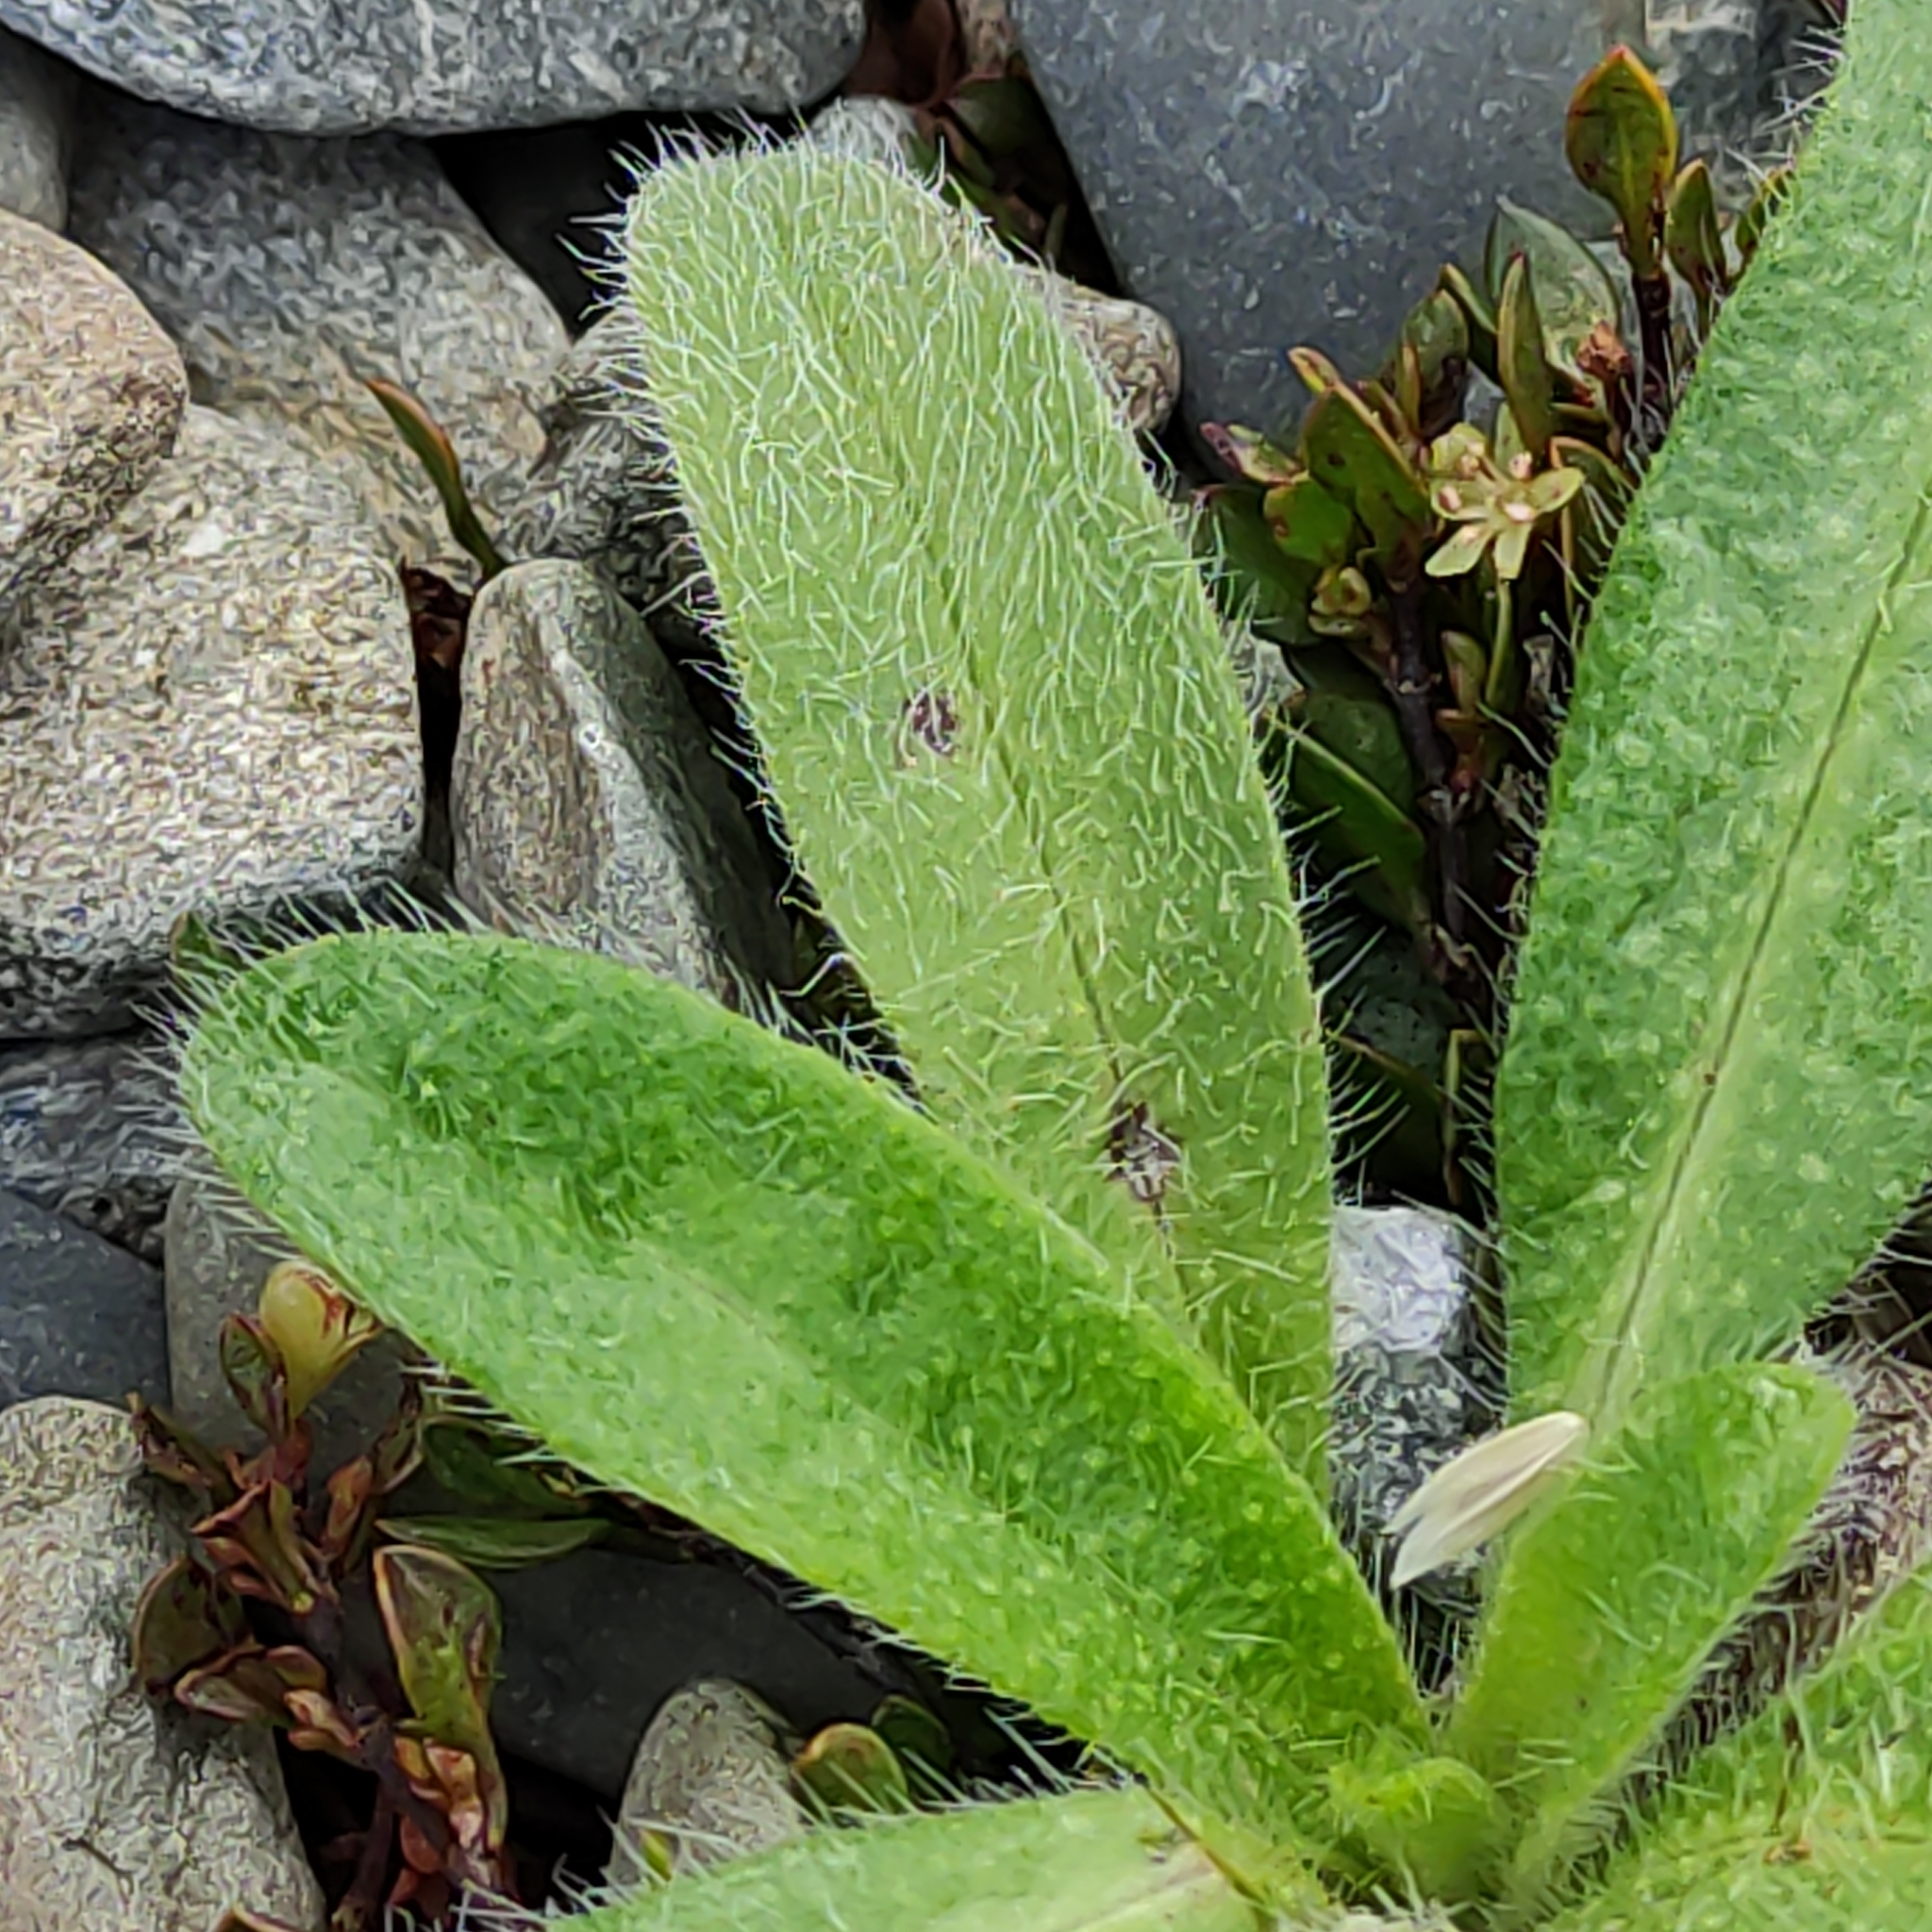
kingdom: Plantae
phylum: Tracheophyta
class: Magnoliopsida
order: Boraginales
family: Boraginaceae
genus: Echium
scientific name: Echium vulgare
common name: Common viper's bugloss
